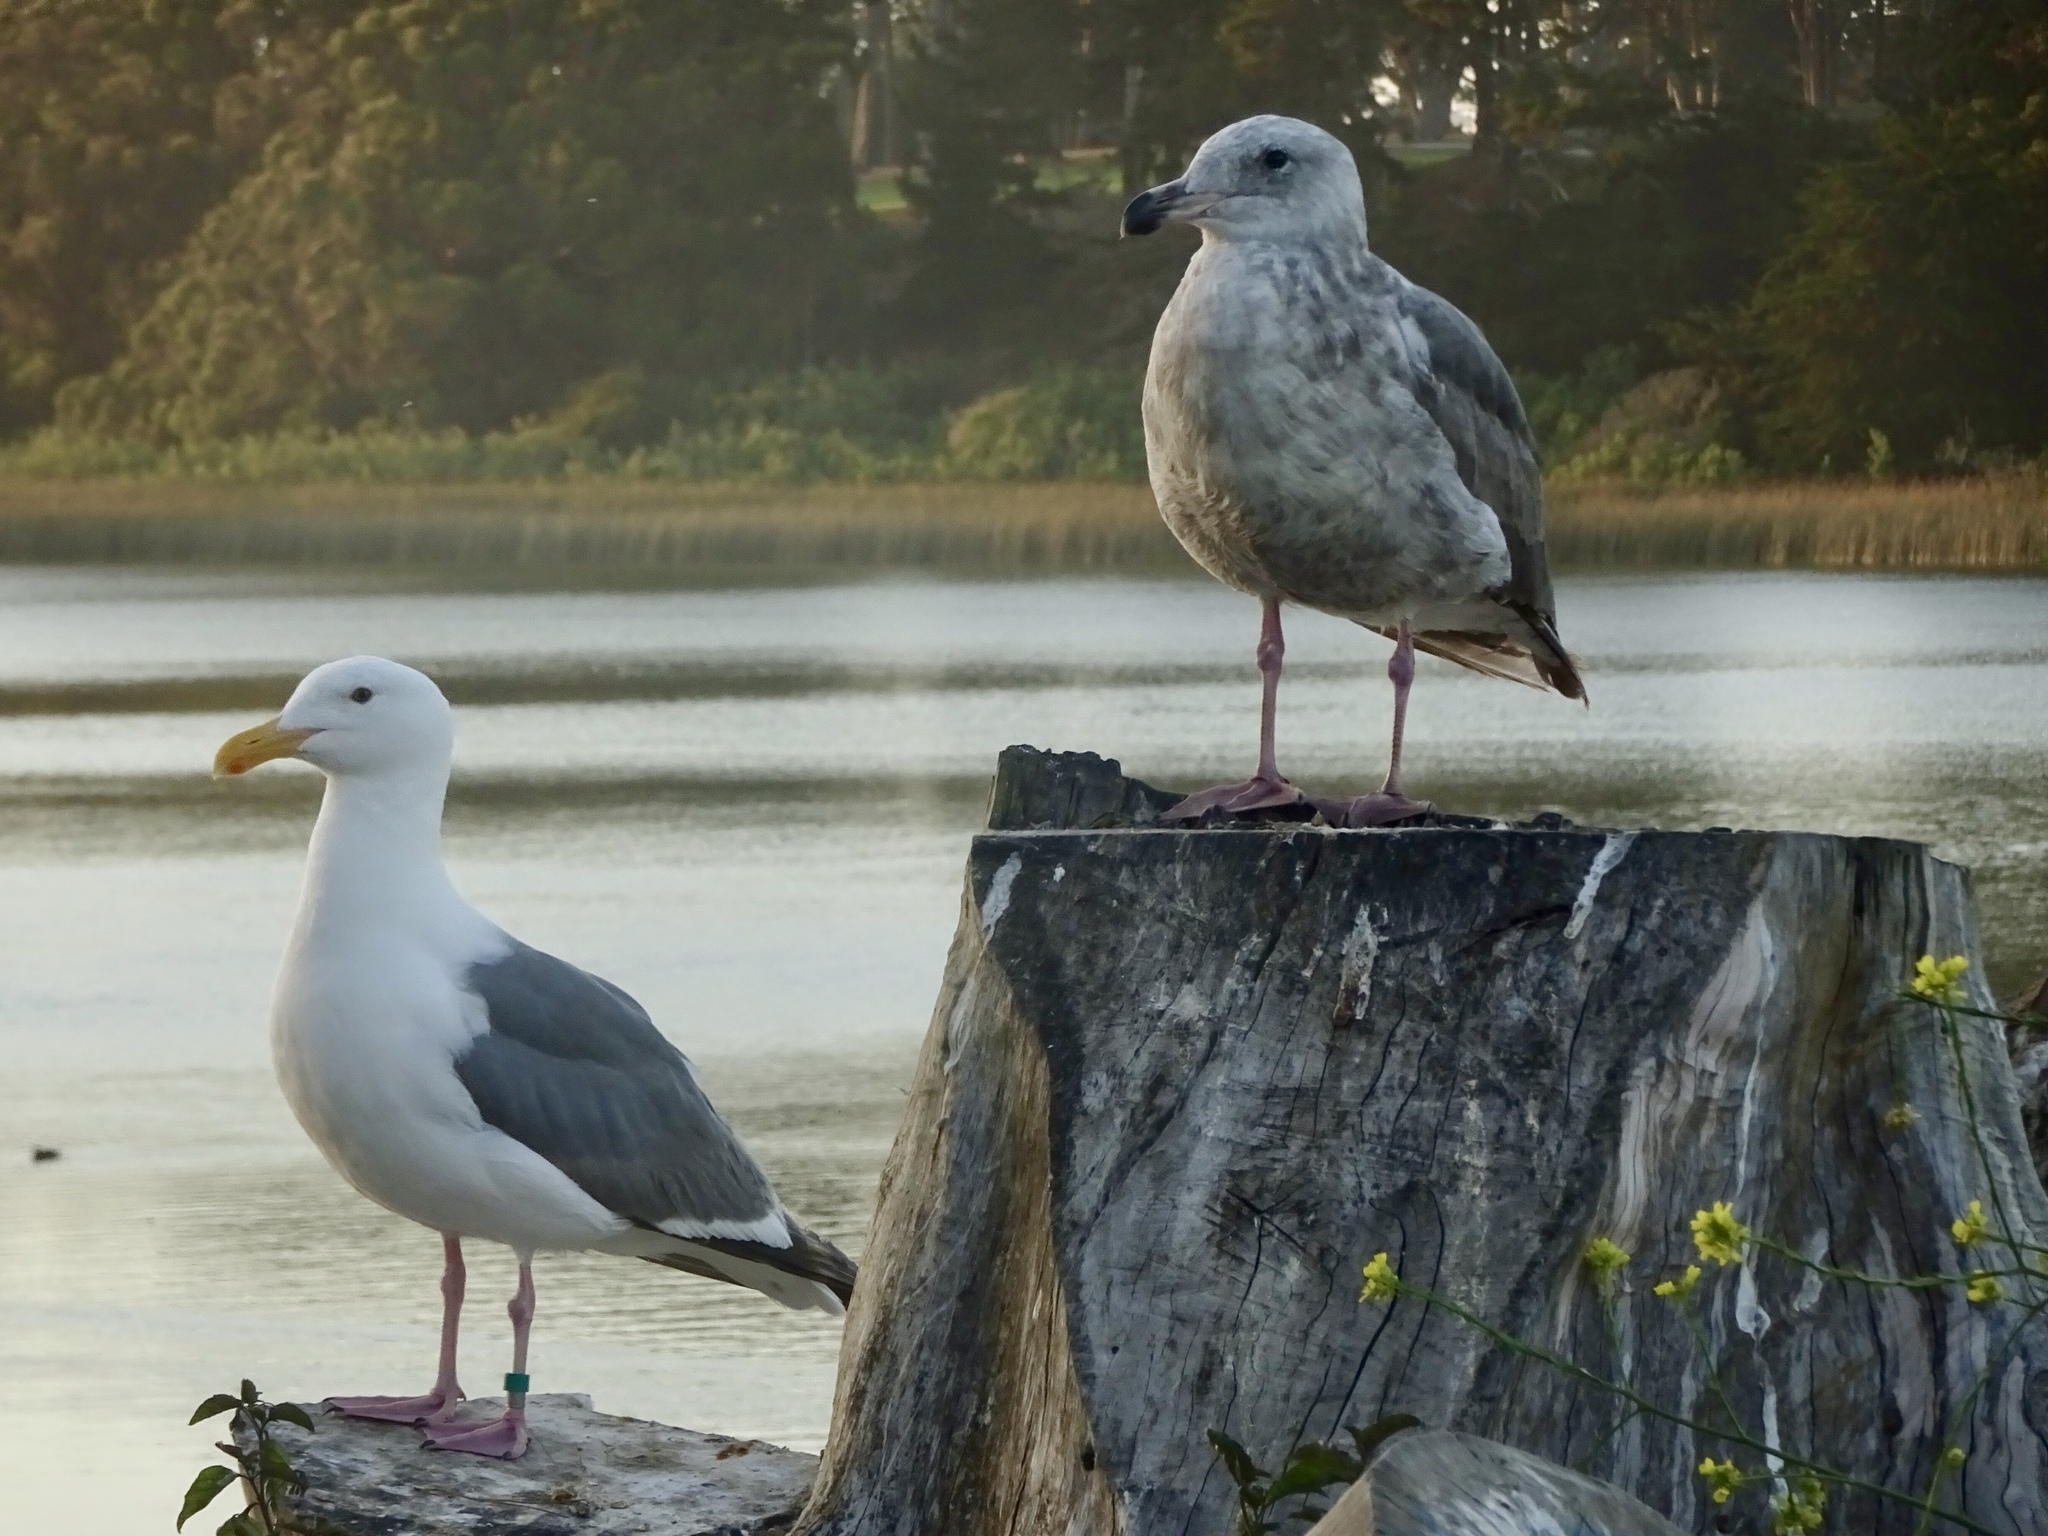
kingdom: Animalia
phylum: Chordata
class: Aves
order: Charadriiformes
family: Laridae
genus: Larus
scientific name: Larus occidentalis
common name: Western gull
